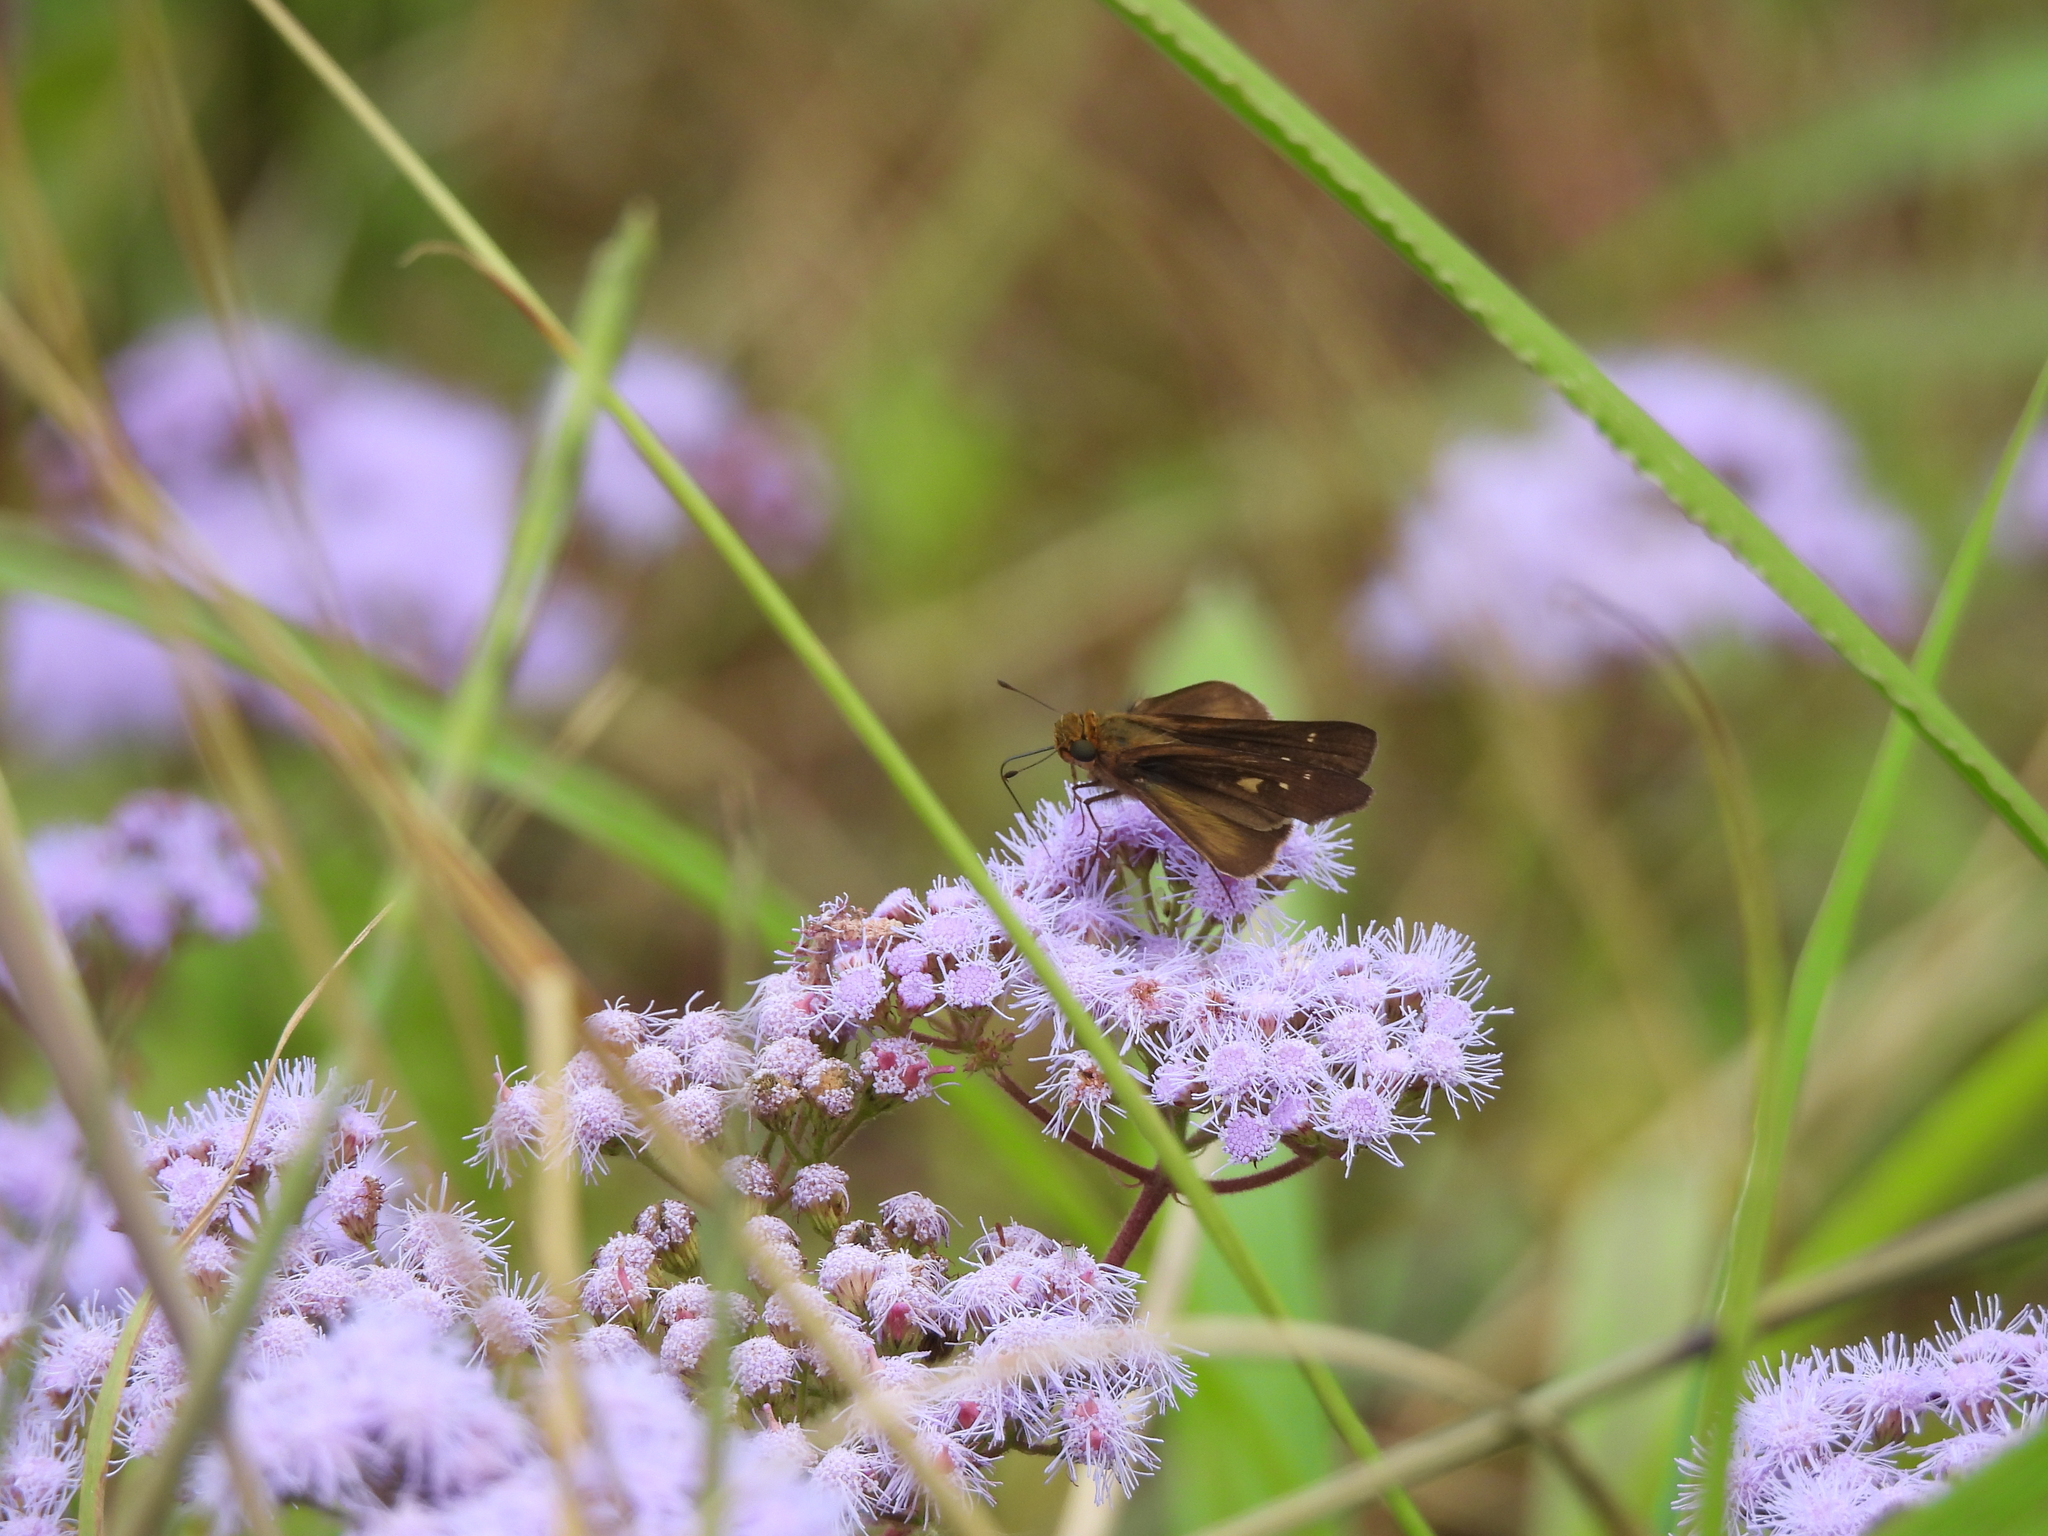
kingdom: Plantae
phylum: Tracheophyta
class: Magnoliopsida
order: Asterales
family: Asteraceae
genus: Conoclinium
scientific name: Conoclinium coelestinum
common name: Blue mistflower
